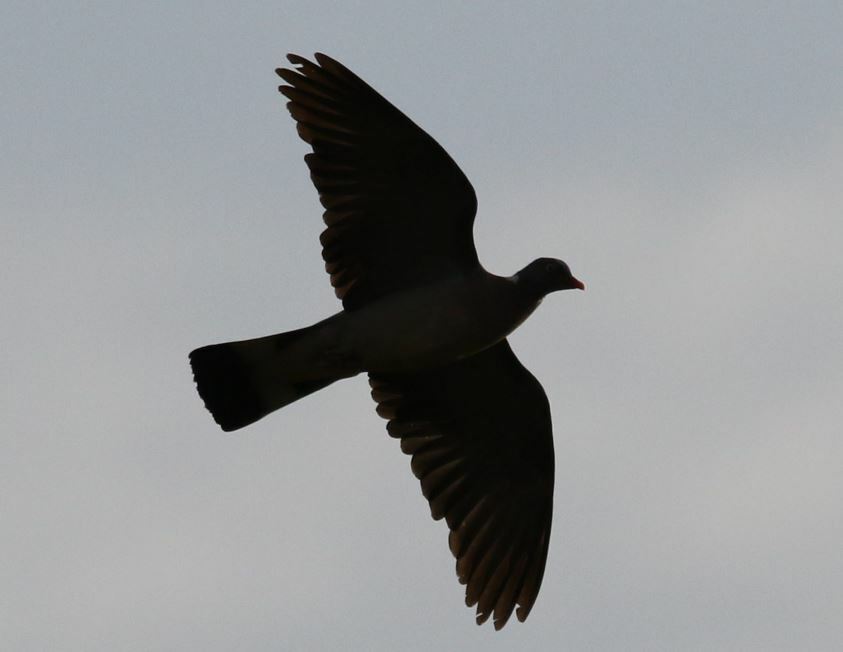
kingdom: Animalia
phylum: Chordata
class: Aves
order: Columbiformes
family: Columbidae
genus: Columba
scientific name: Columba palumbus
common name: Common wood pigeon
